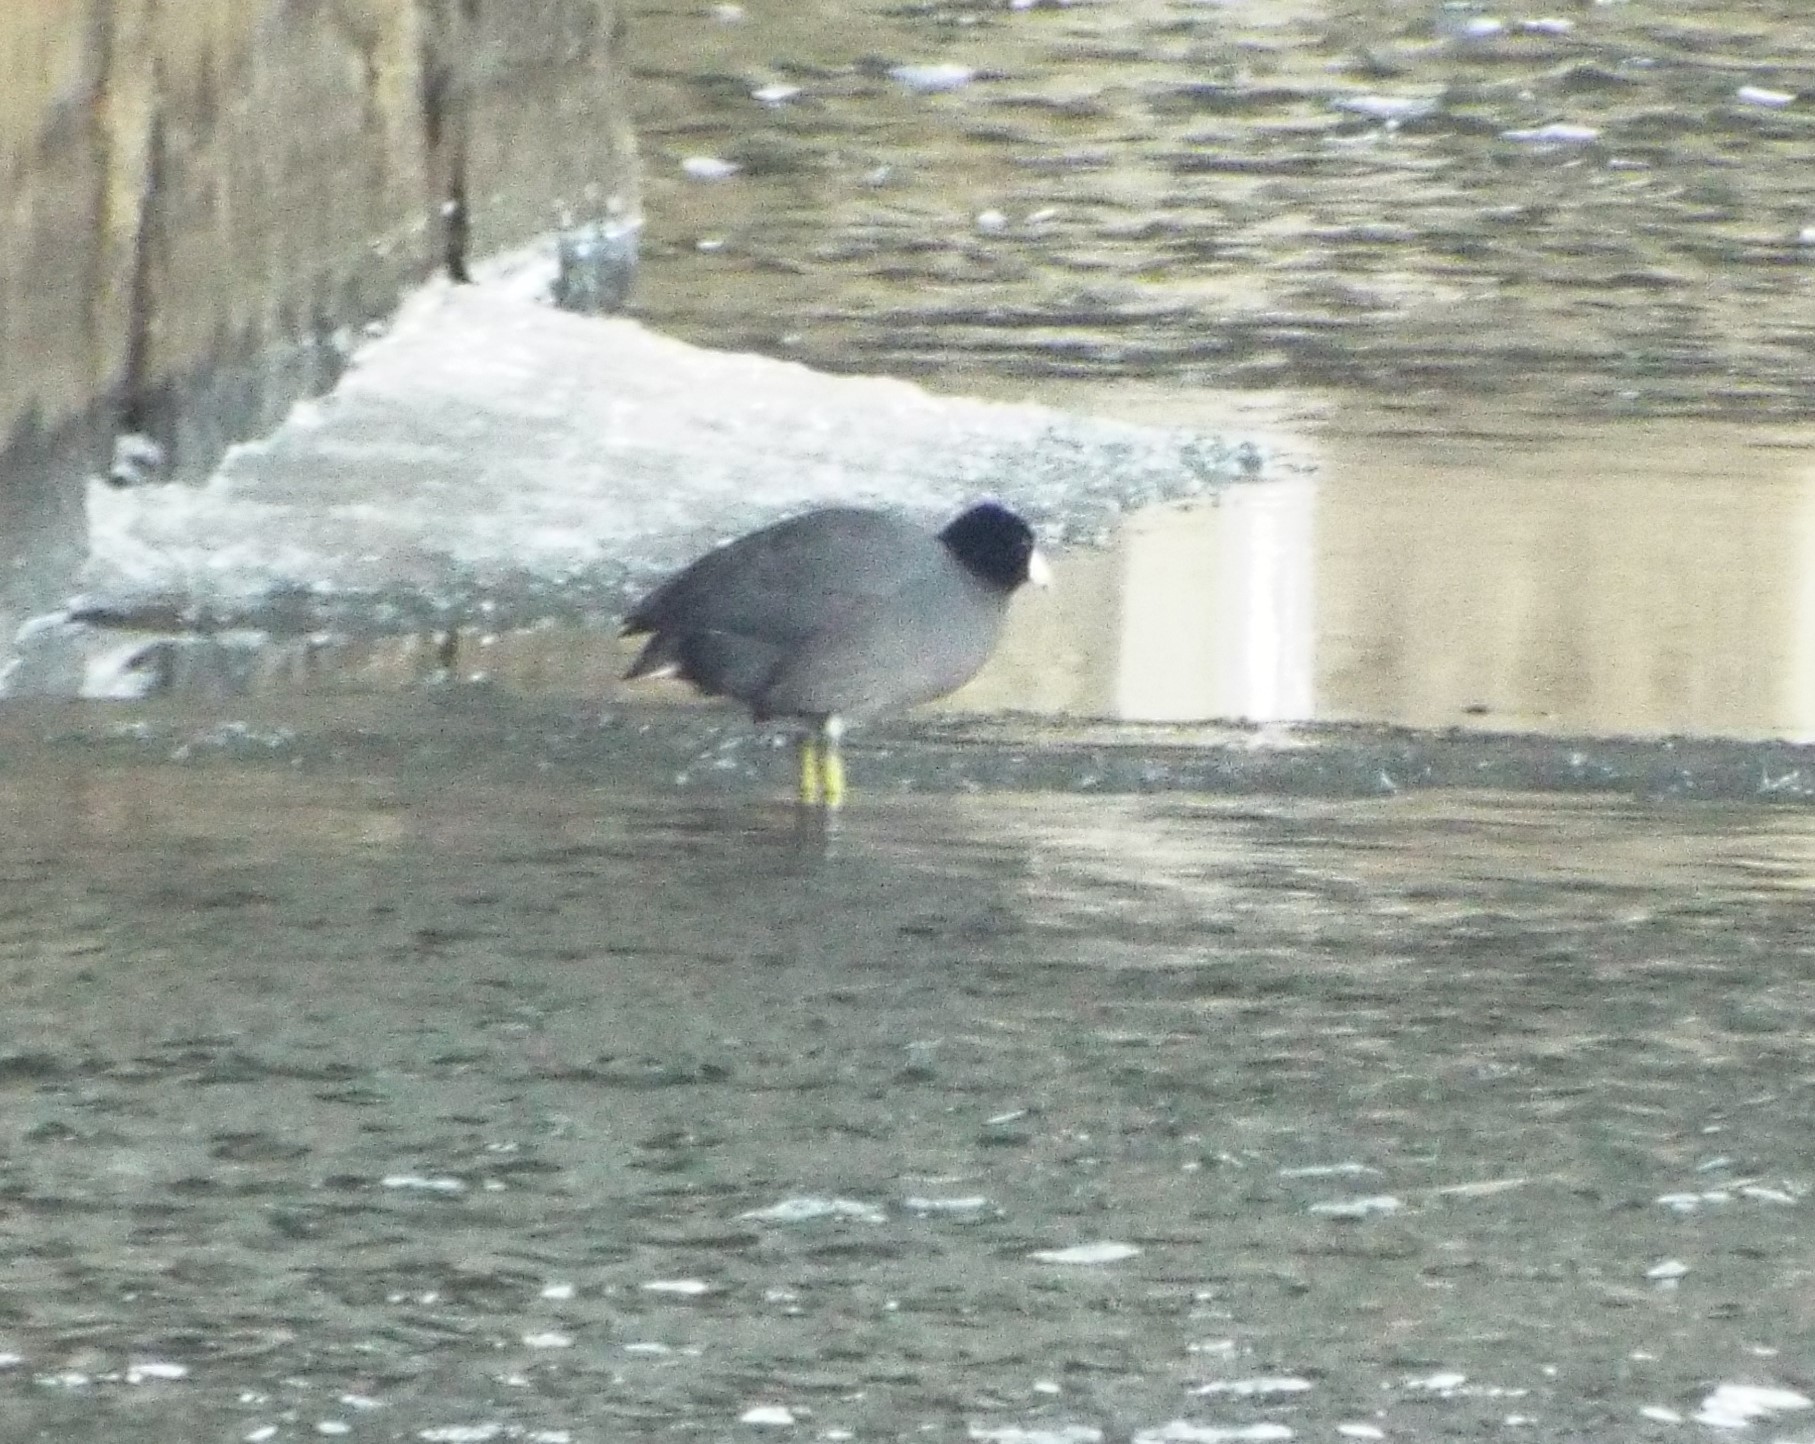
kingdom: Animalia
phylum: Chordata
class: Aves
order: Gruiformes
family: Rallidae
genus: Fulica
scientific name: Fulica americana
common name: American coot
